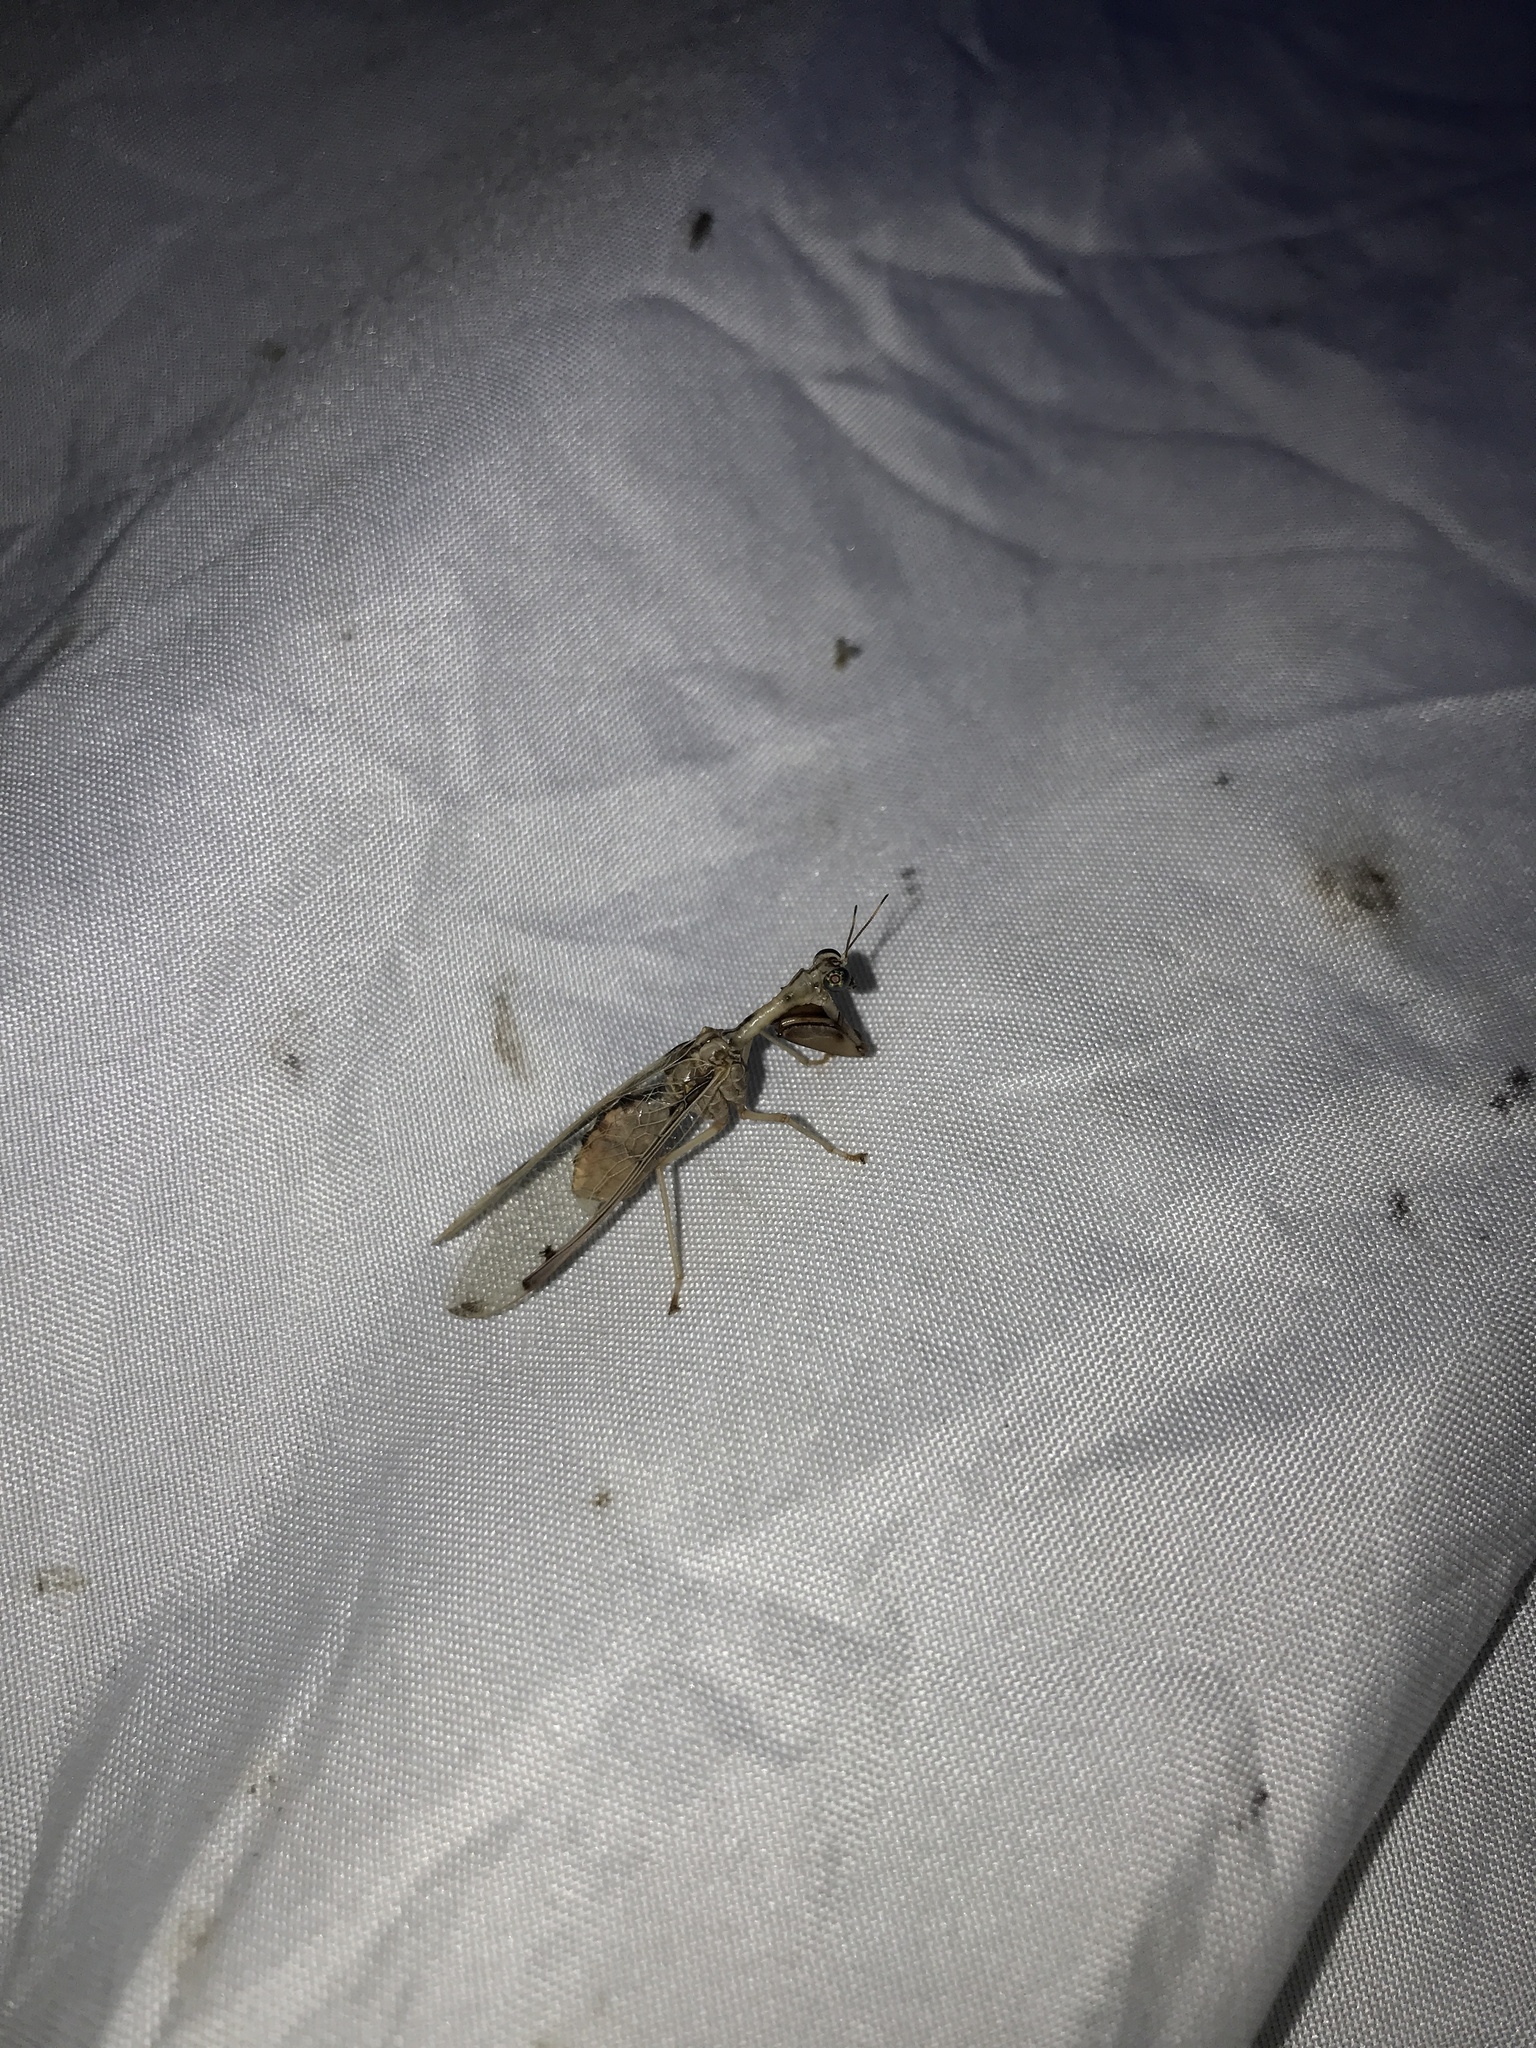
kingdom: Animalia
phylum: Arthropoda
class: Insecta
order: Neuroptera
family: Mantispidae
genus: Dicromantispa
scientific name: Dicromantispa interrupta
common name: Four-spotted mantidfly
